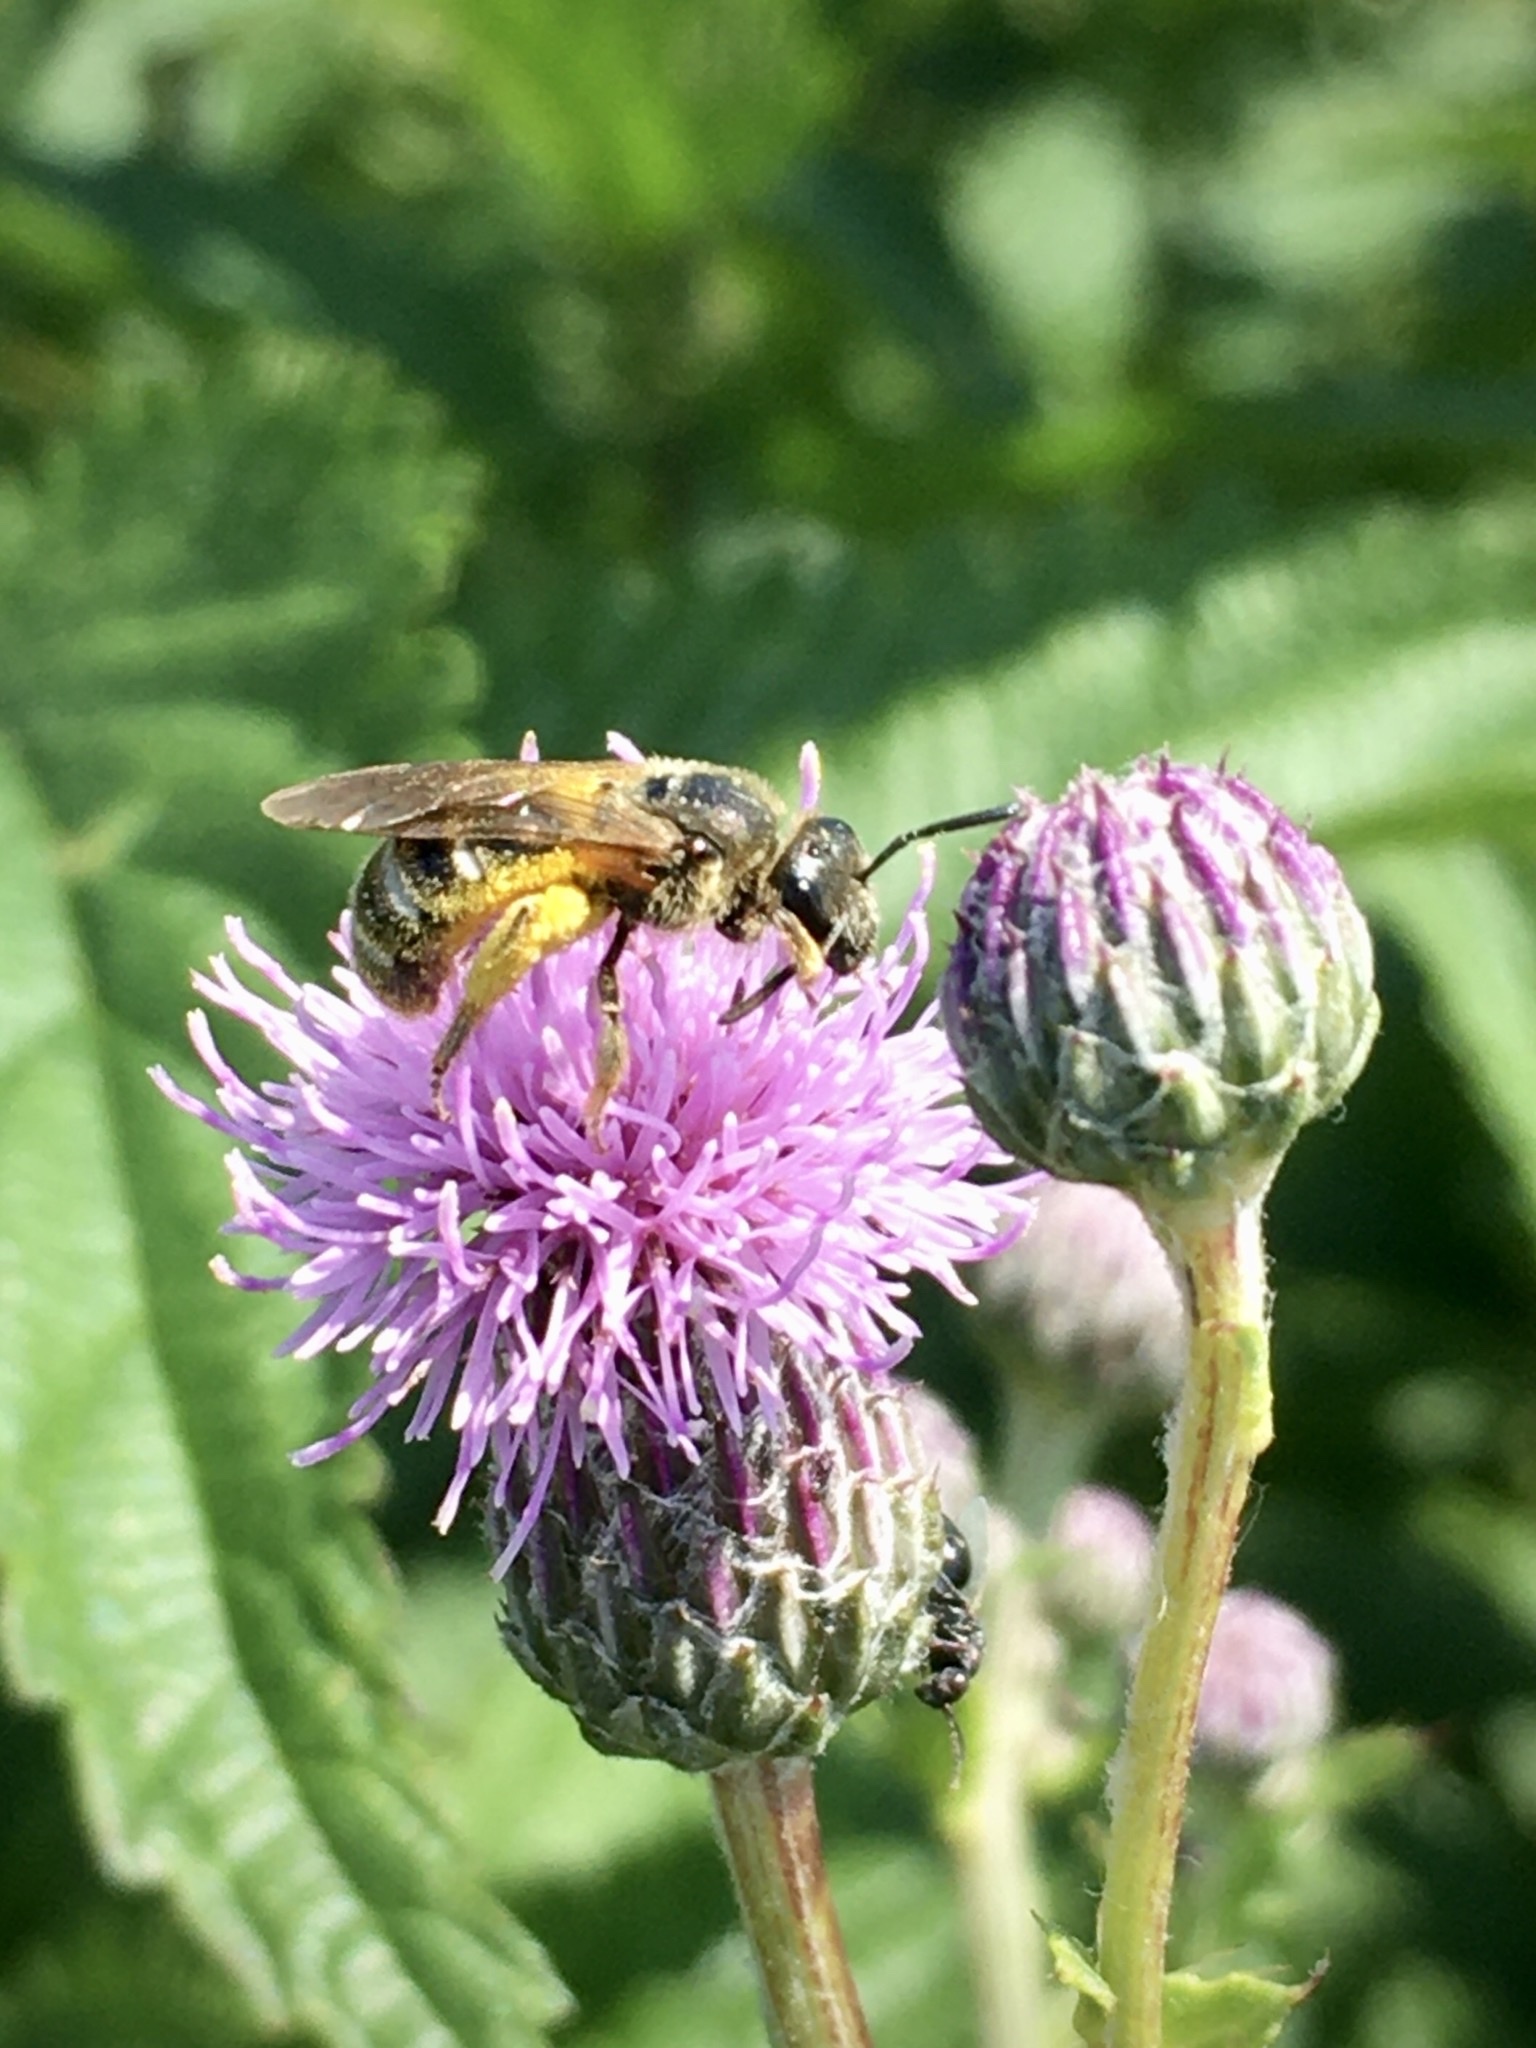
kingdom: Animalia
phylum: Arthropoda
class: Insecta
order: Hymenoptera
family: Halictidae
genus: Lasioglossum
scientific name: Lasioglossum
